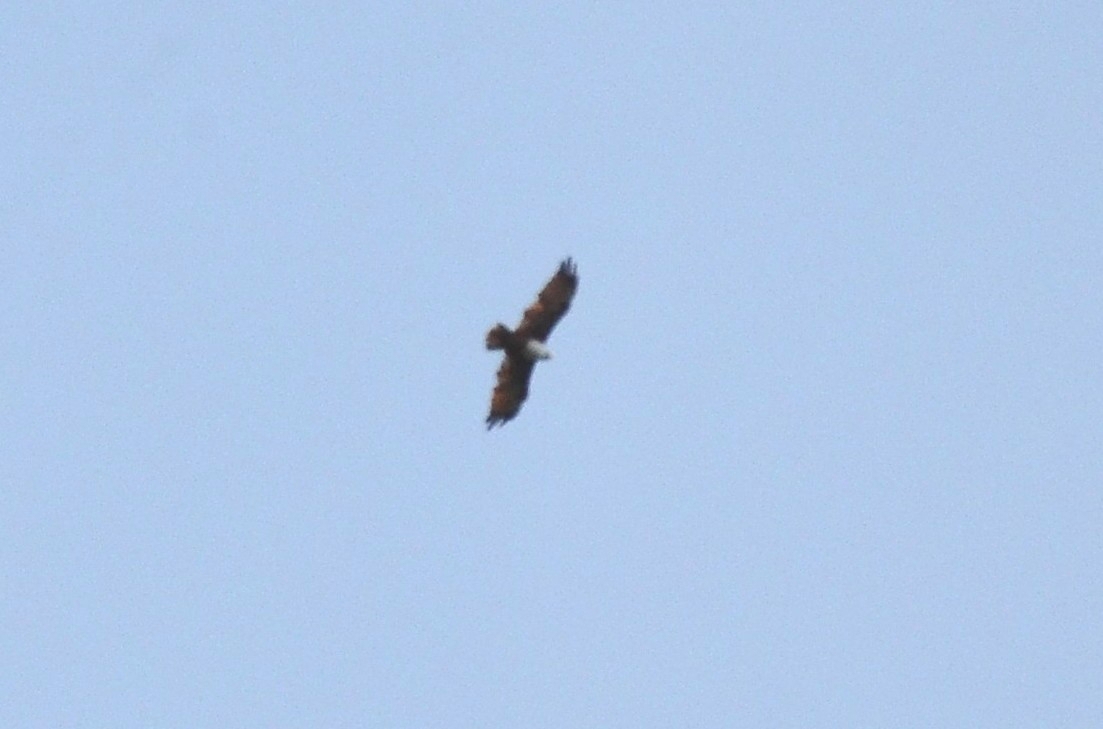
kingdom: Animalia
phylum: Chordata
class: Aves
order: Accipitriformes
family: Accipitridae
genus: Haliastur
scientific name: Haliastur indus
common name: Brahminy kite
